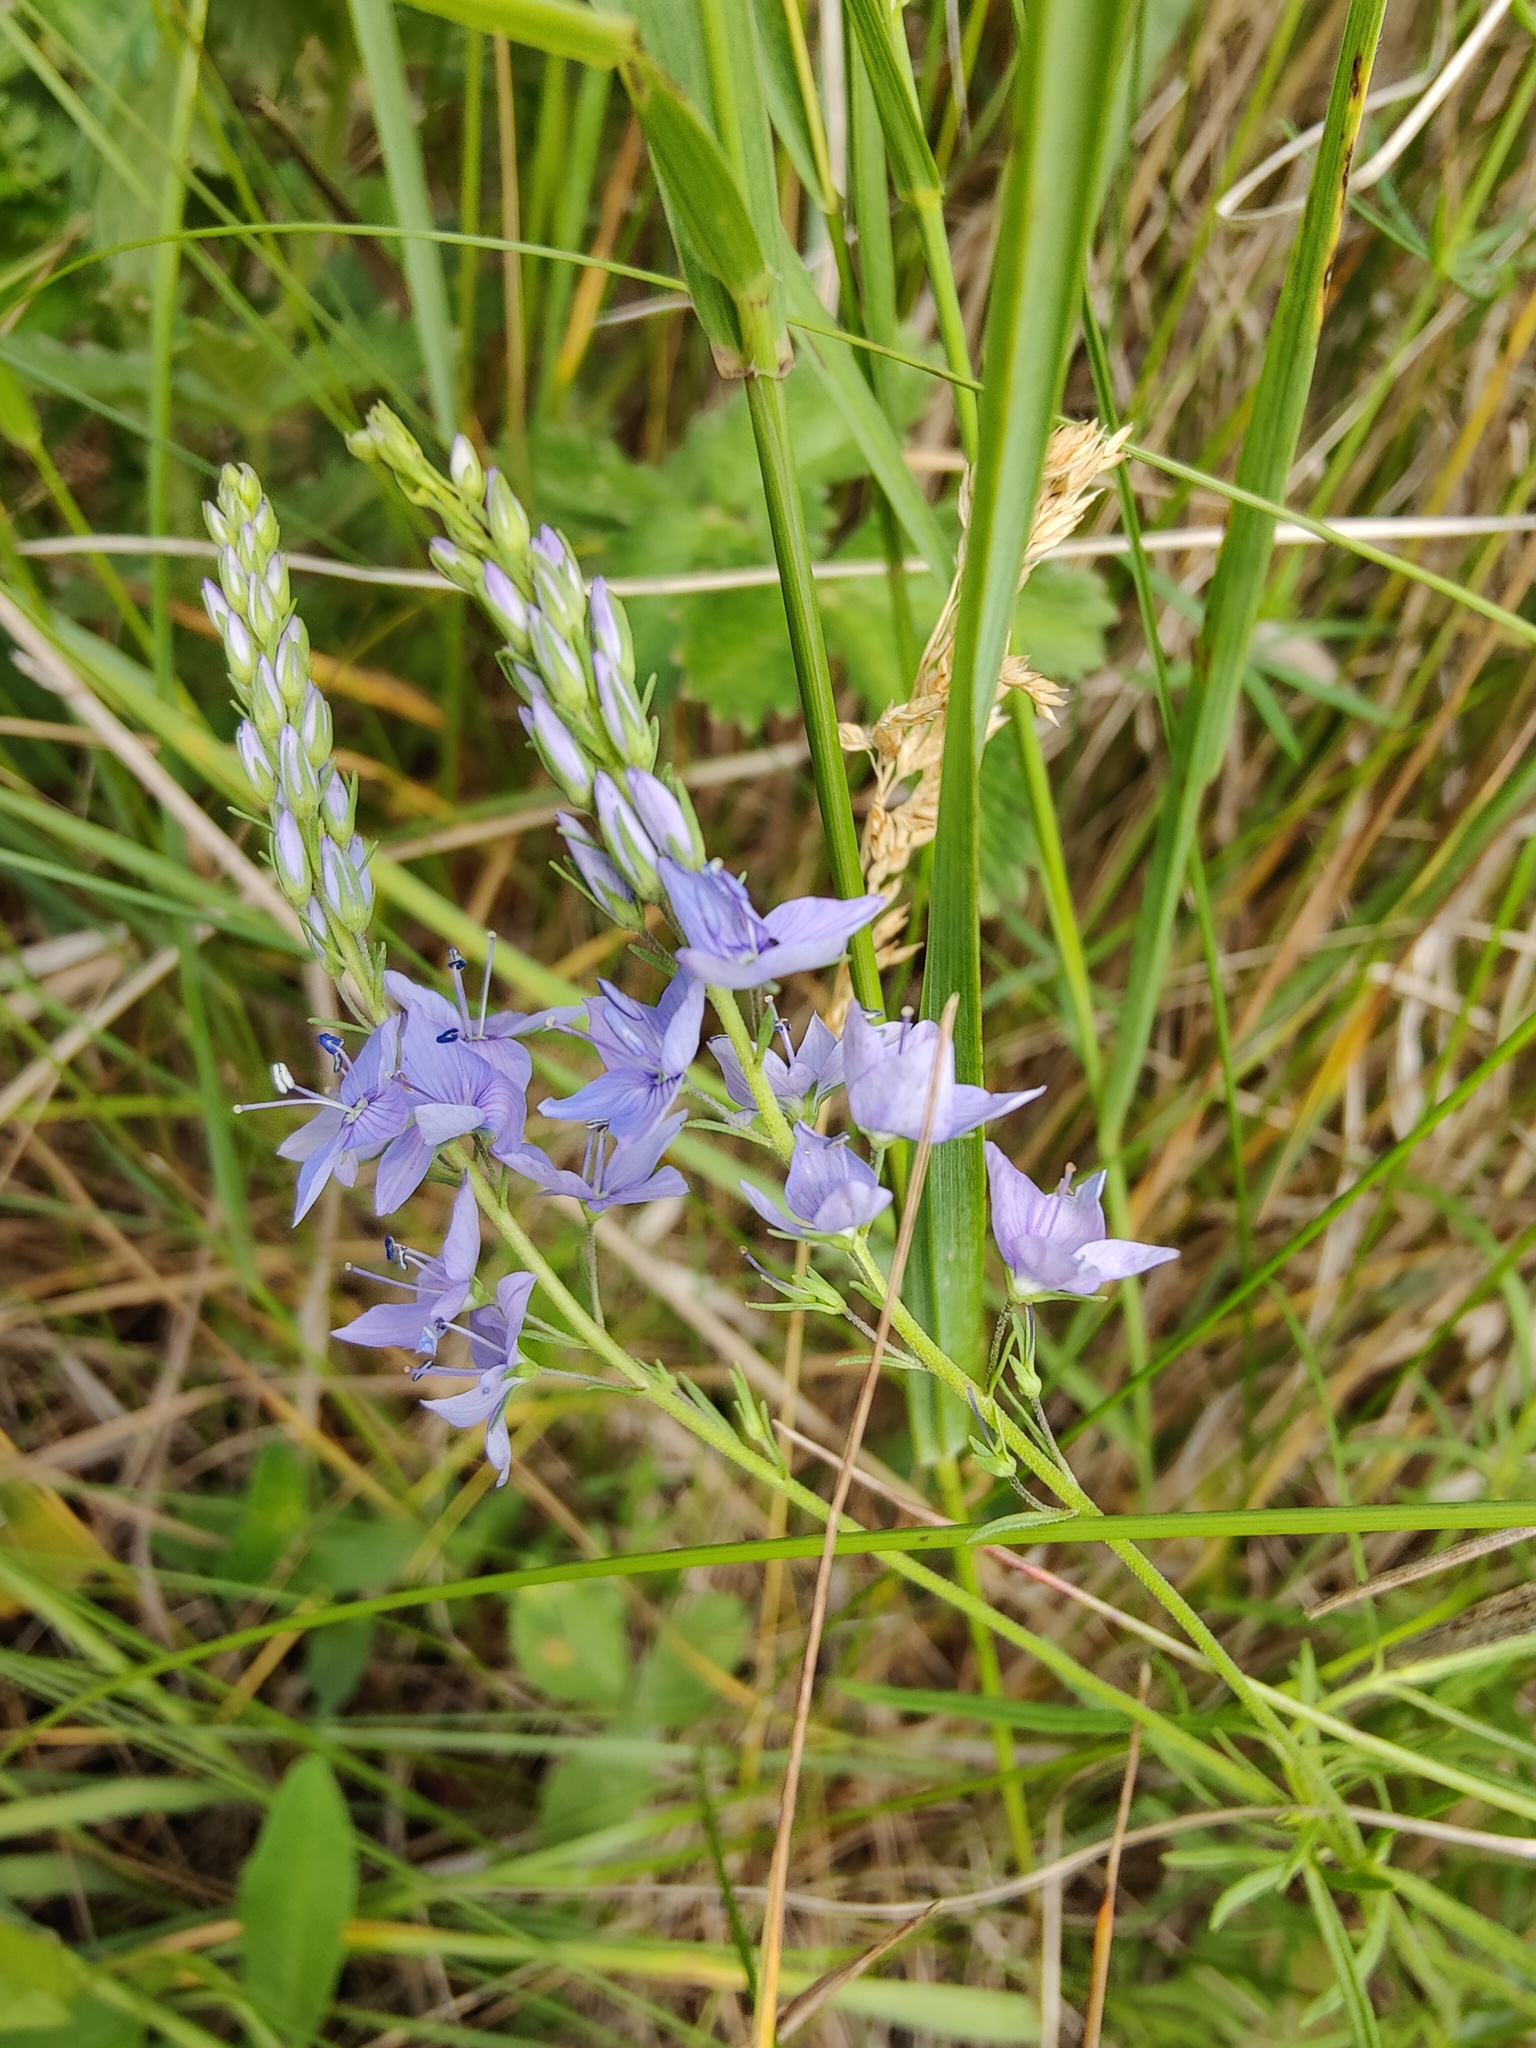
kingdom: Plantae
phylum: Tracheophyta
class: Magnoliopsida
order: Lamiales
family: Plantaginaceae
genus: Veronica
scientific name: Veronica austriaca
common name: Large speedwell
